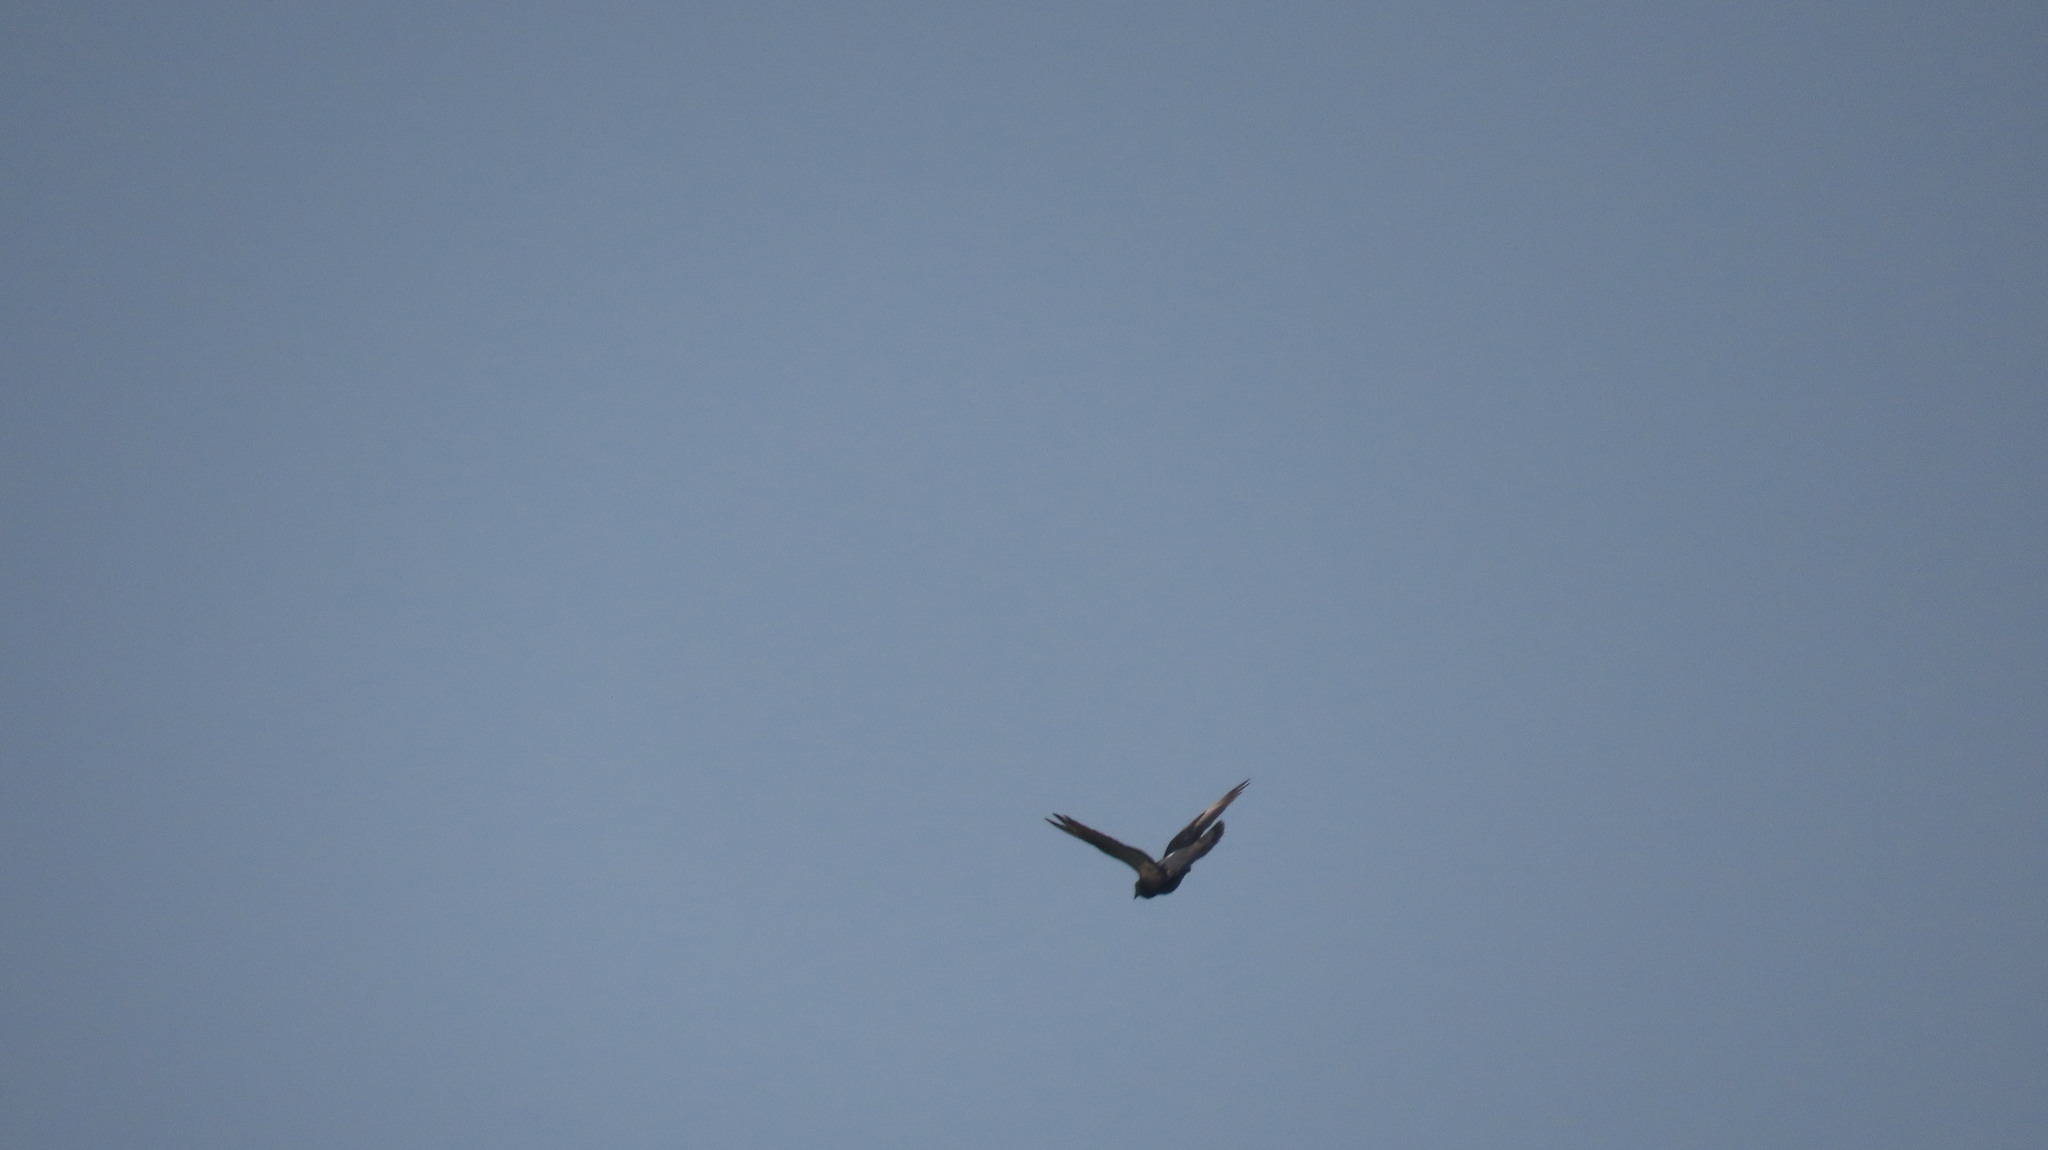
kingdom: Animalia
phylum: Chordata
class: Aves
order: Columbiformes
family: Columbidae
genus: Columba
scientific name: Columba livia
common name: Rock pigeon
